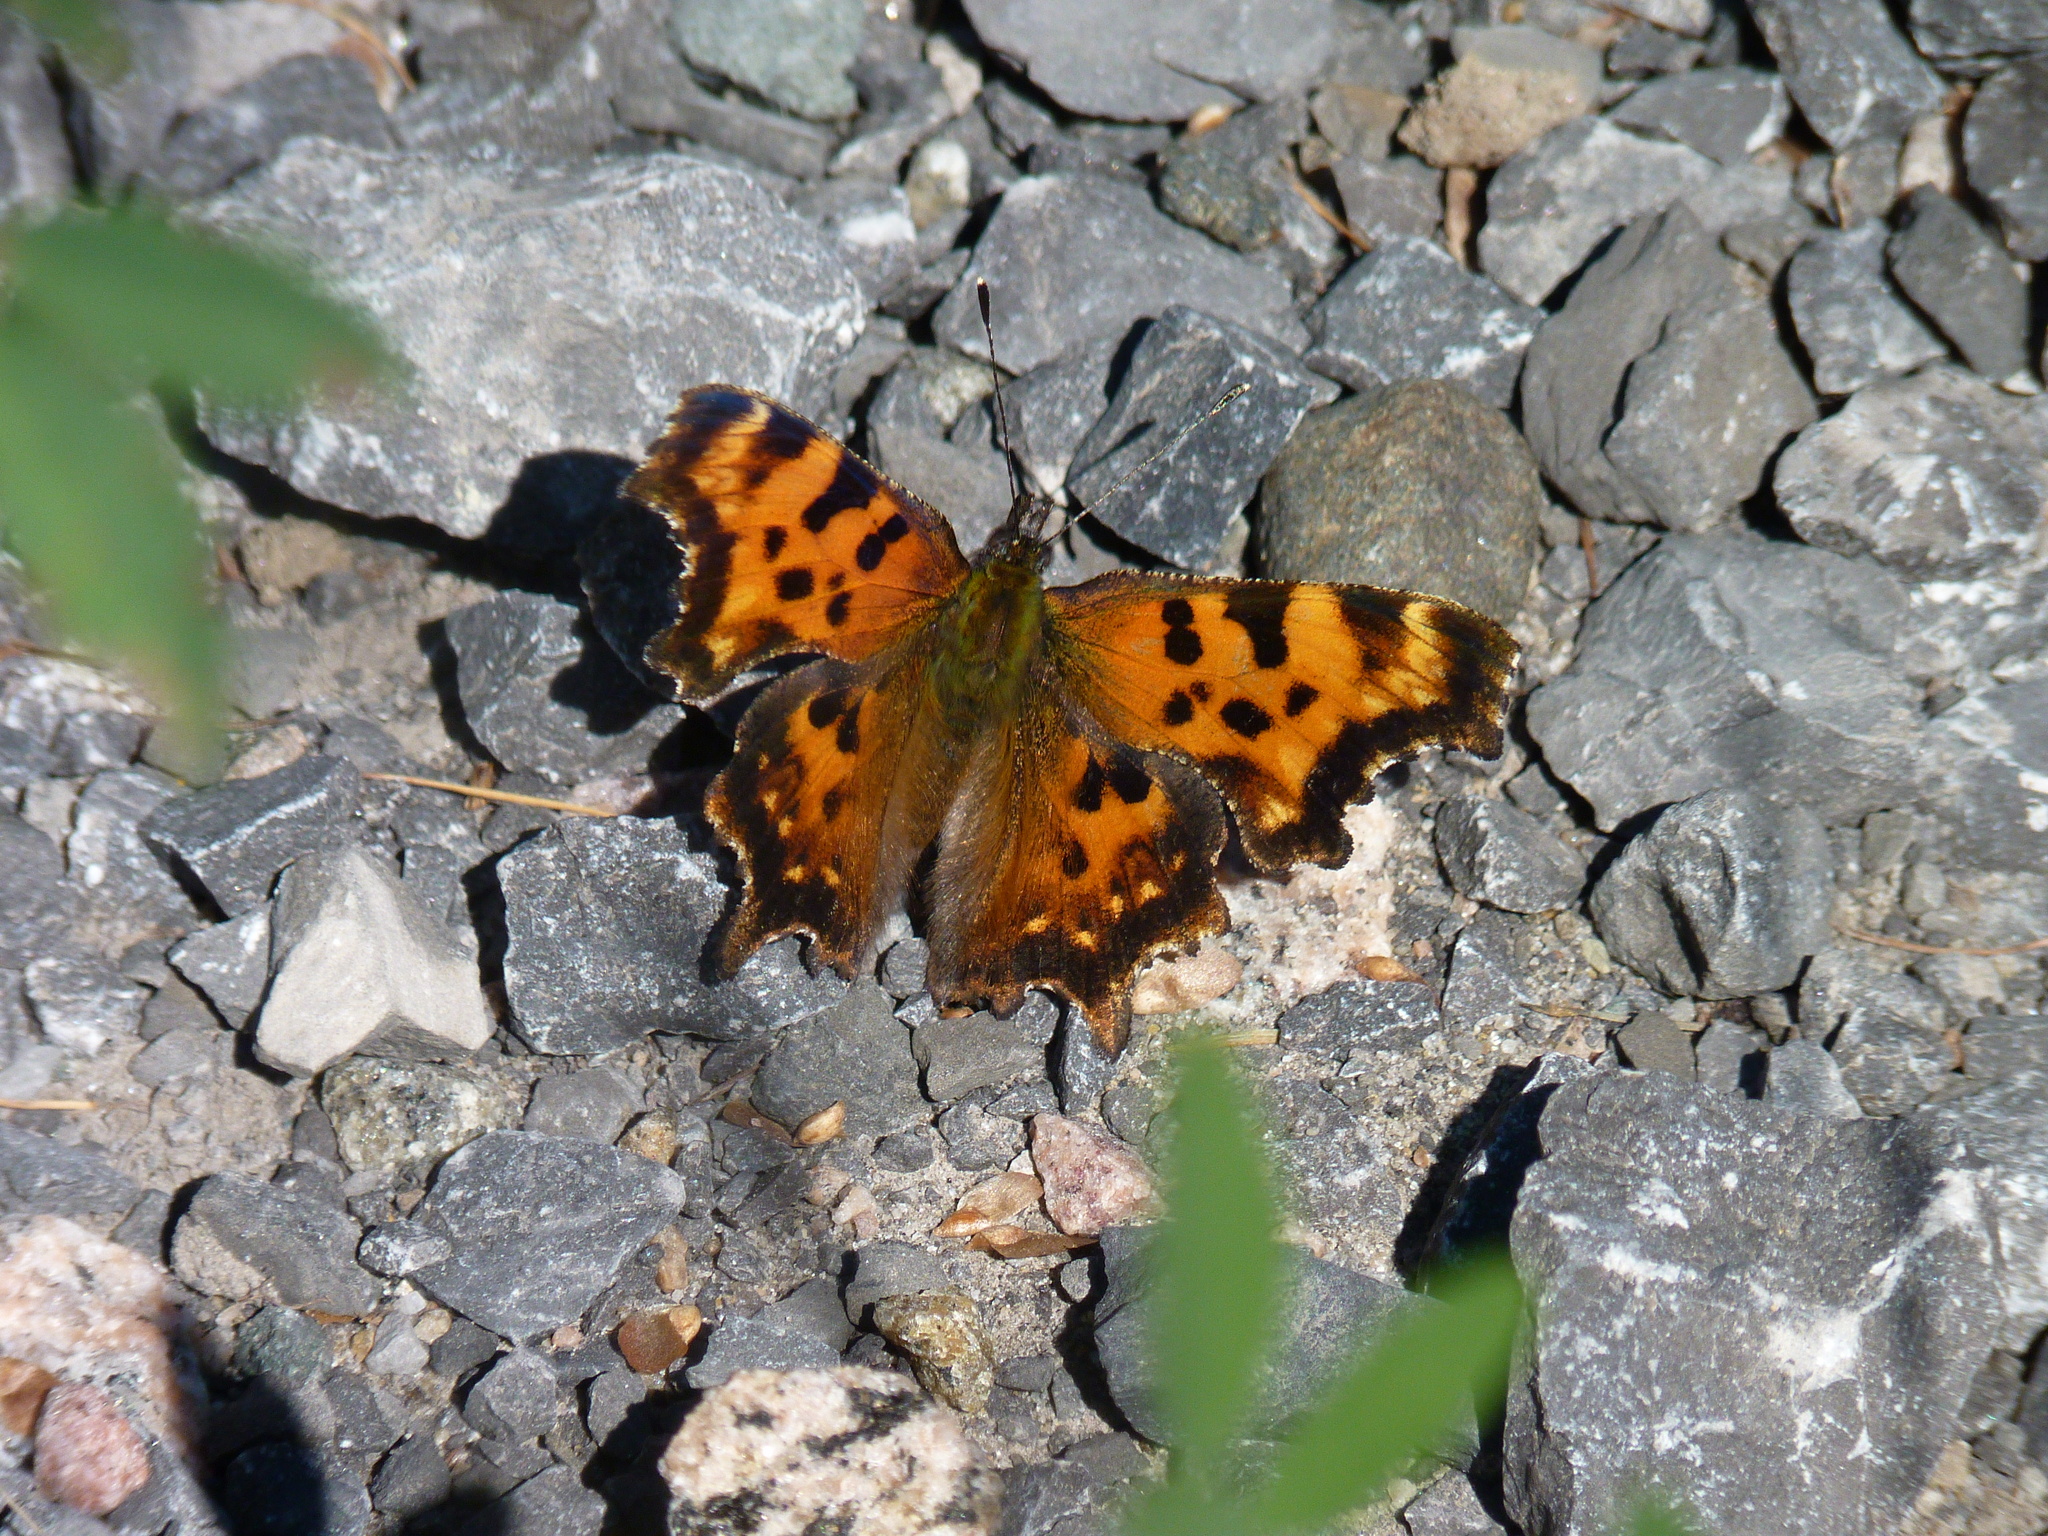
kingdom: Animalia
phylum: Arthropoda
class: Insecta
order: Lepidoptera
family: Nymphalidae
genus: Polygonia
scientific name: Polygonia faunus
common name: Green comma
